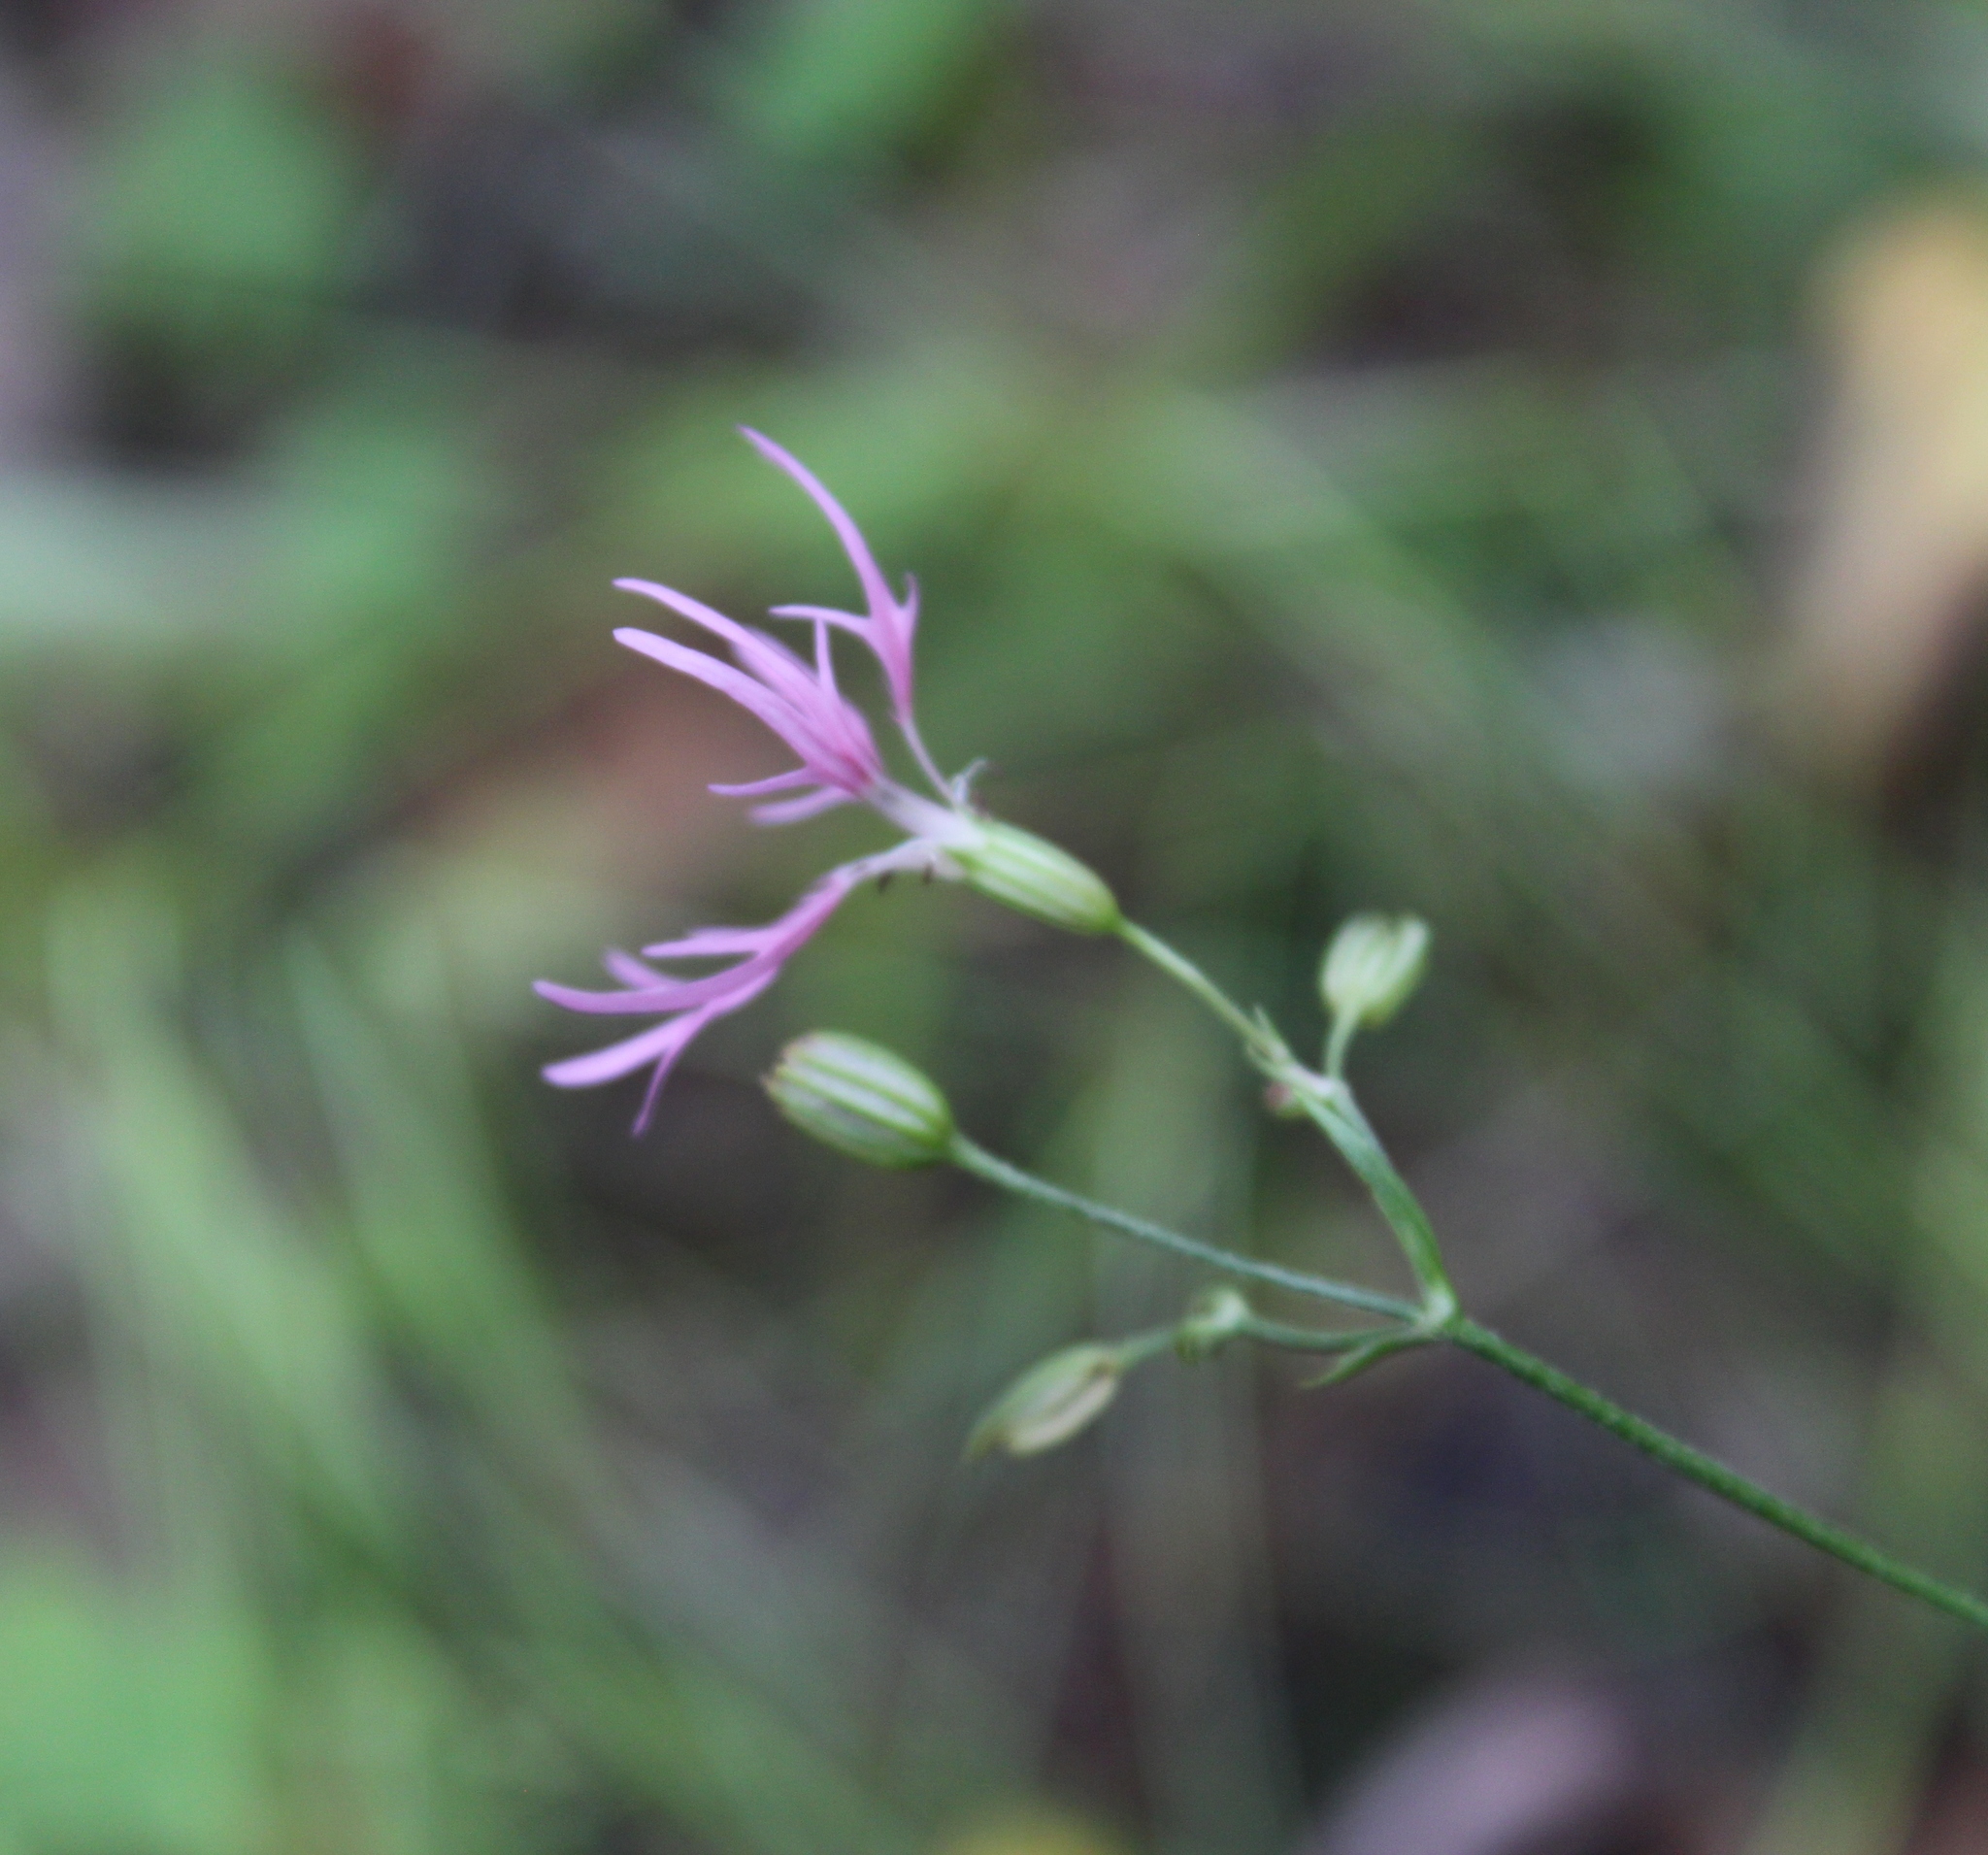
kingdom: Plantae
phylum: Tracheophyta
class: Magnoliopsida
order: Caryophyllales
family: Caryophyllaceae
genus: Silene
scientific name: Silene flos-cuculi
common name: Ragged-robin
